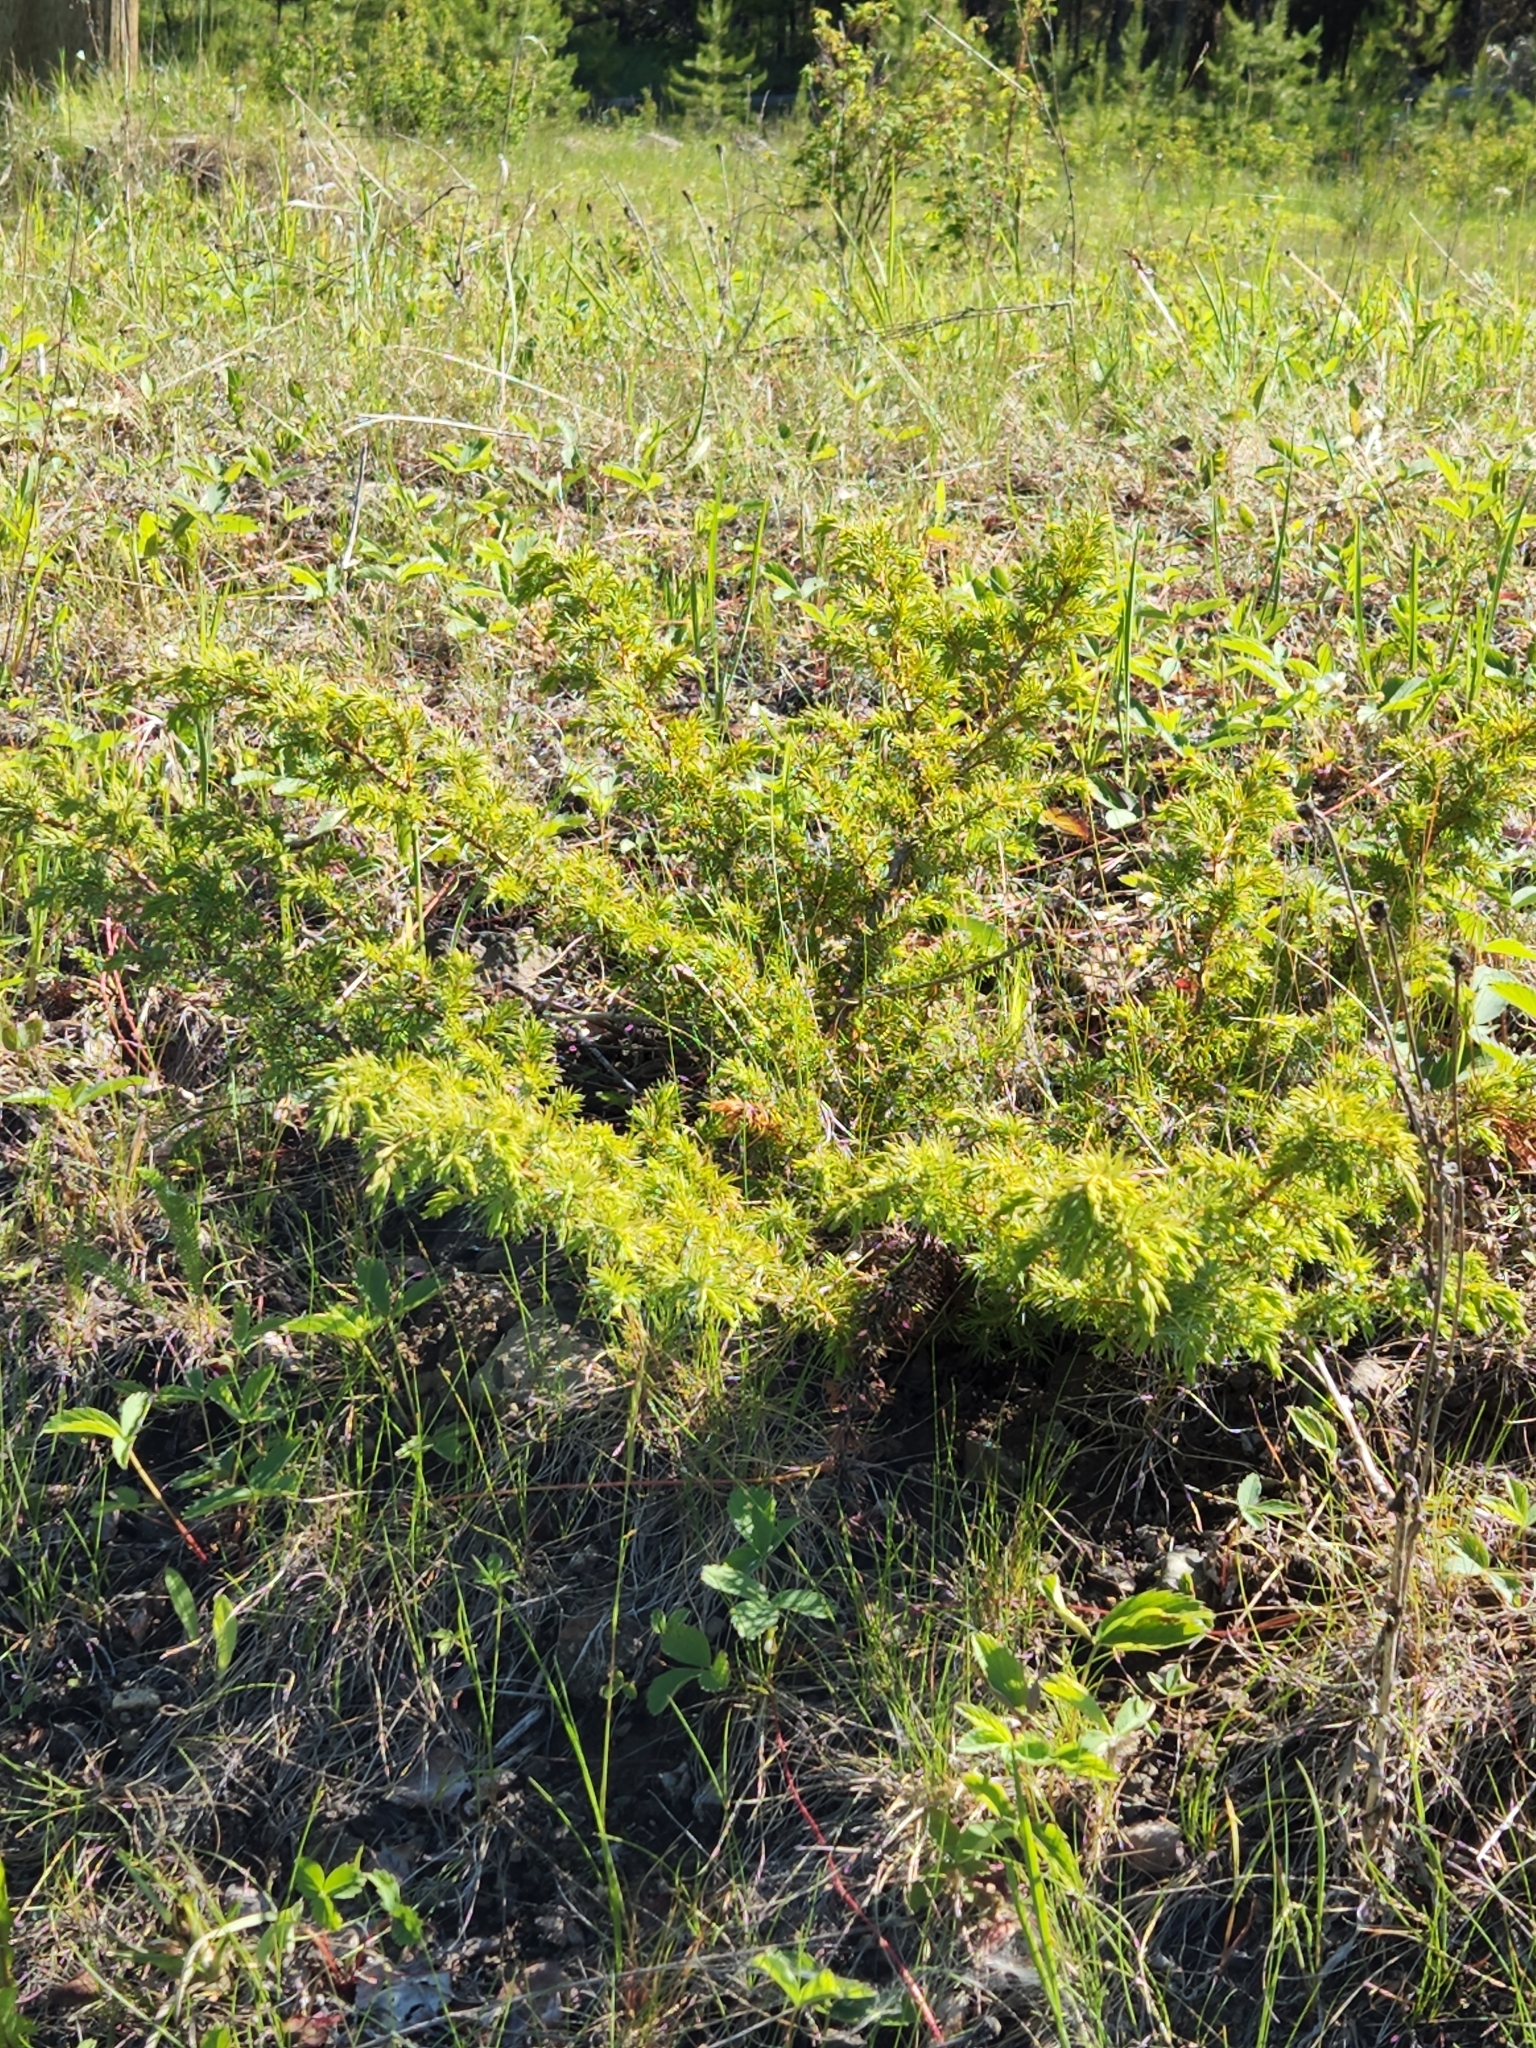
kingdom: Plantae
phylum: Tracheophyta
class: Pinopsida
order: Pinales
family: Cupressaceae
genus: Juniperus
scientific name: Juniperus communis
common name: Common juniper
